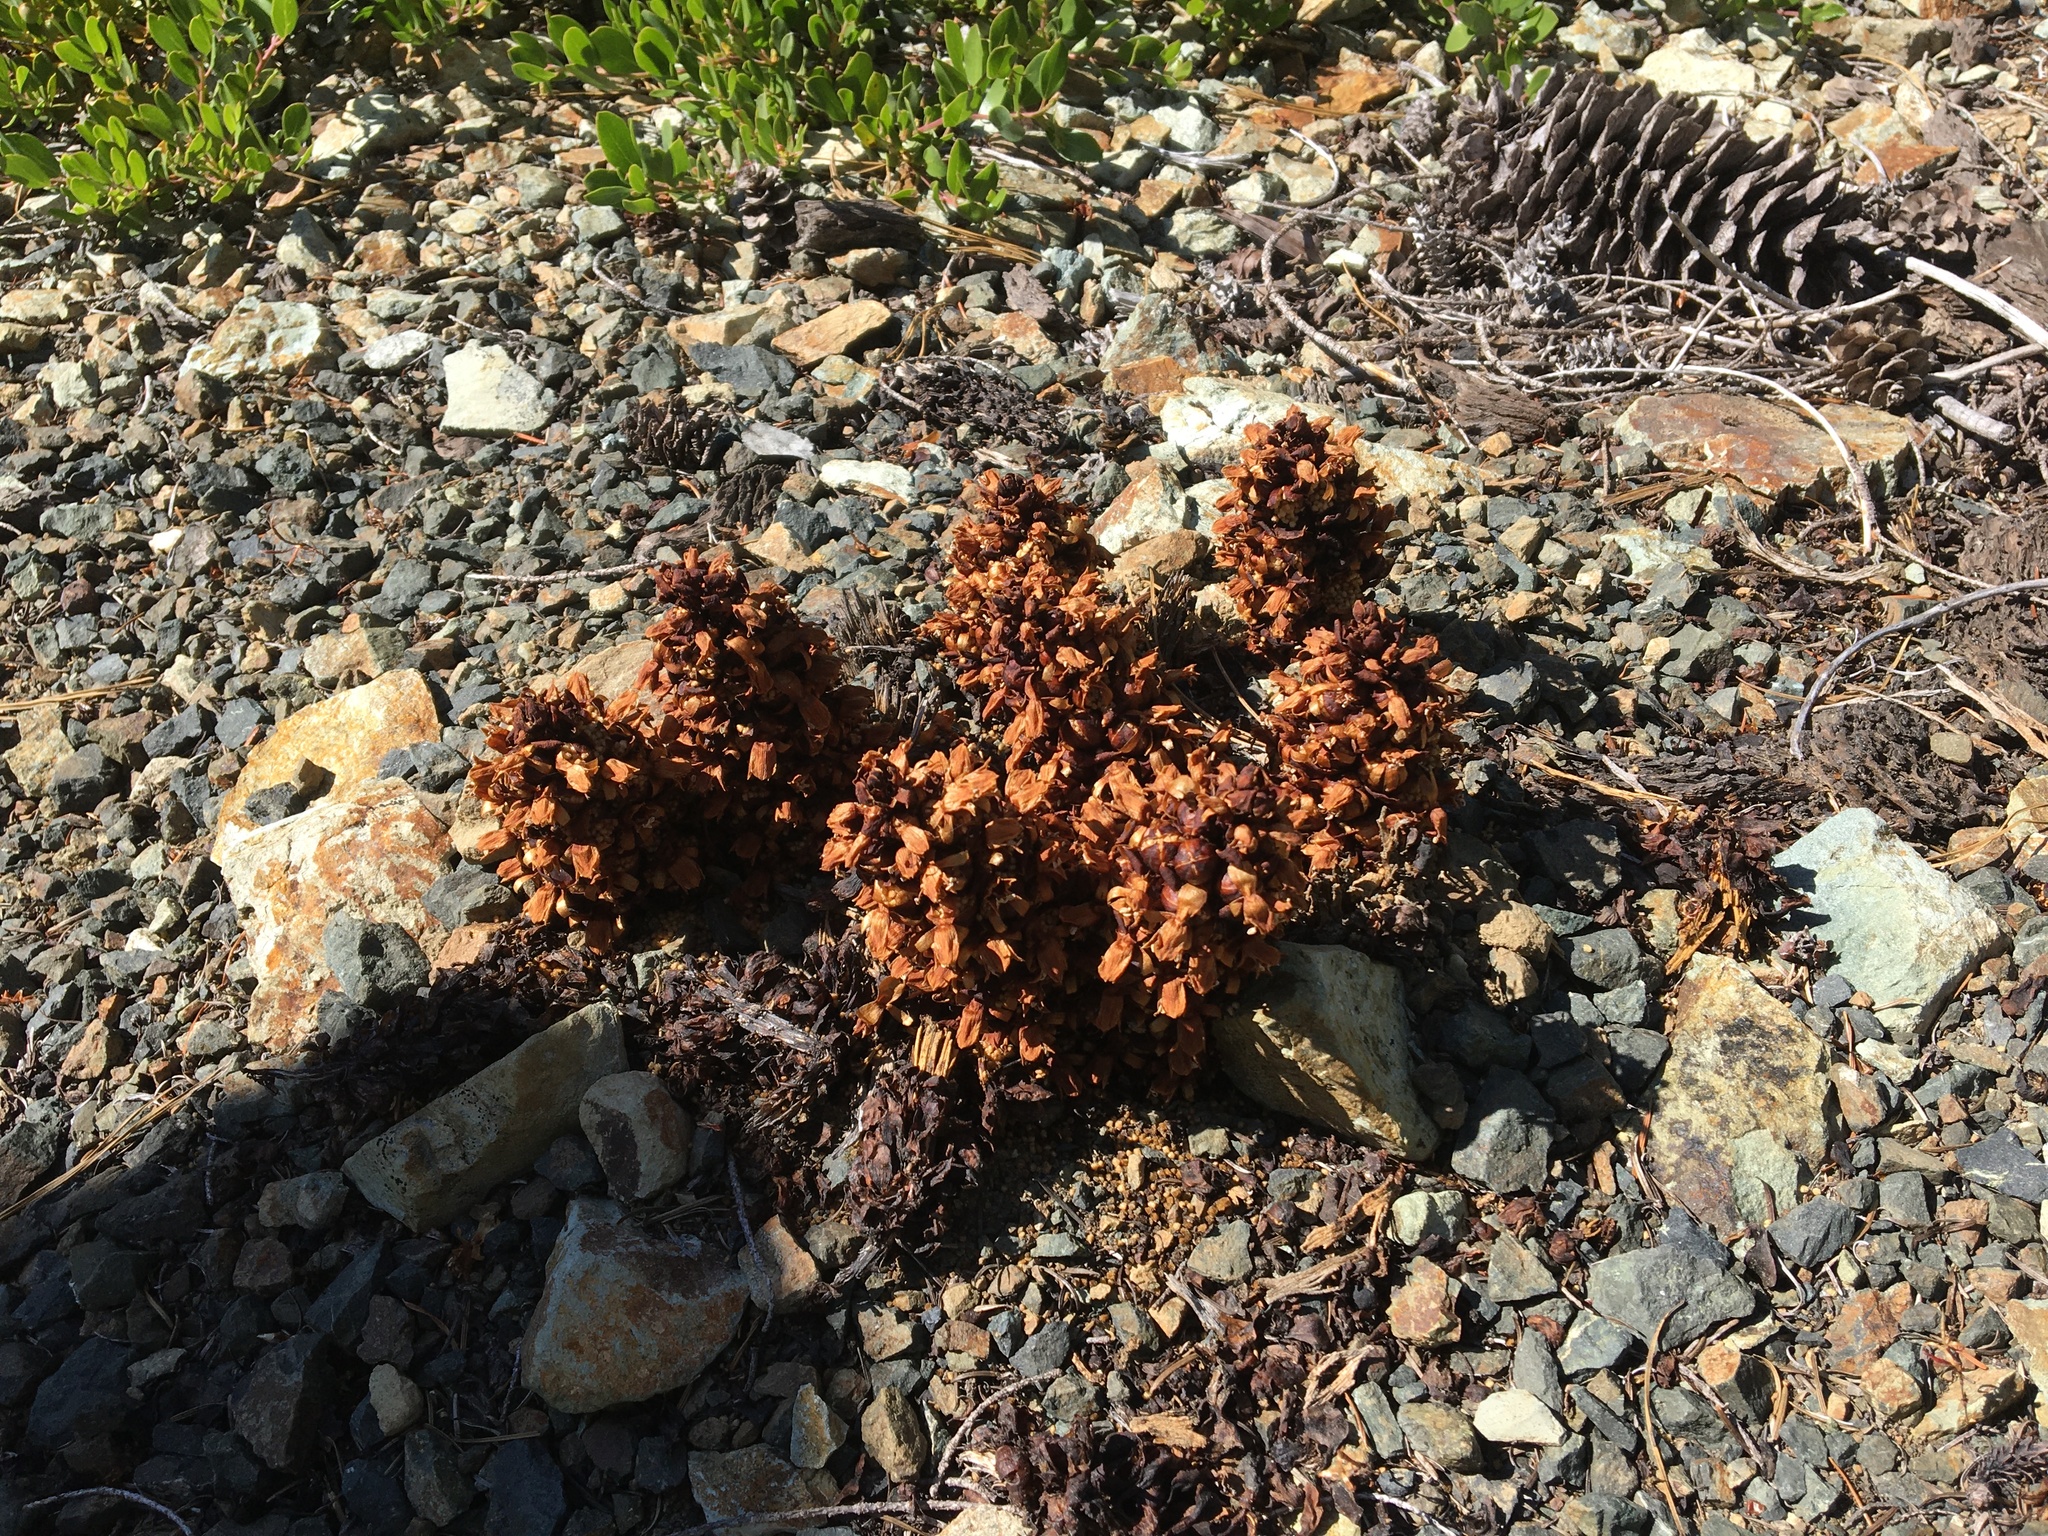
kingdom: Plantae
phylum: Tracheophyta
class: Magnoliopsida
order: Lamiales
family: Orobanchaceae
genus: Kopsiopsis
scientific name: Kopsiopsis strobilacea
